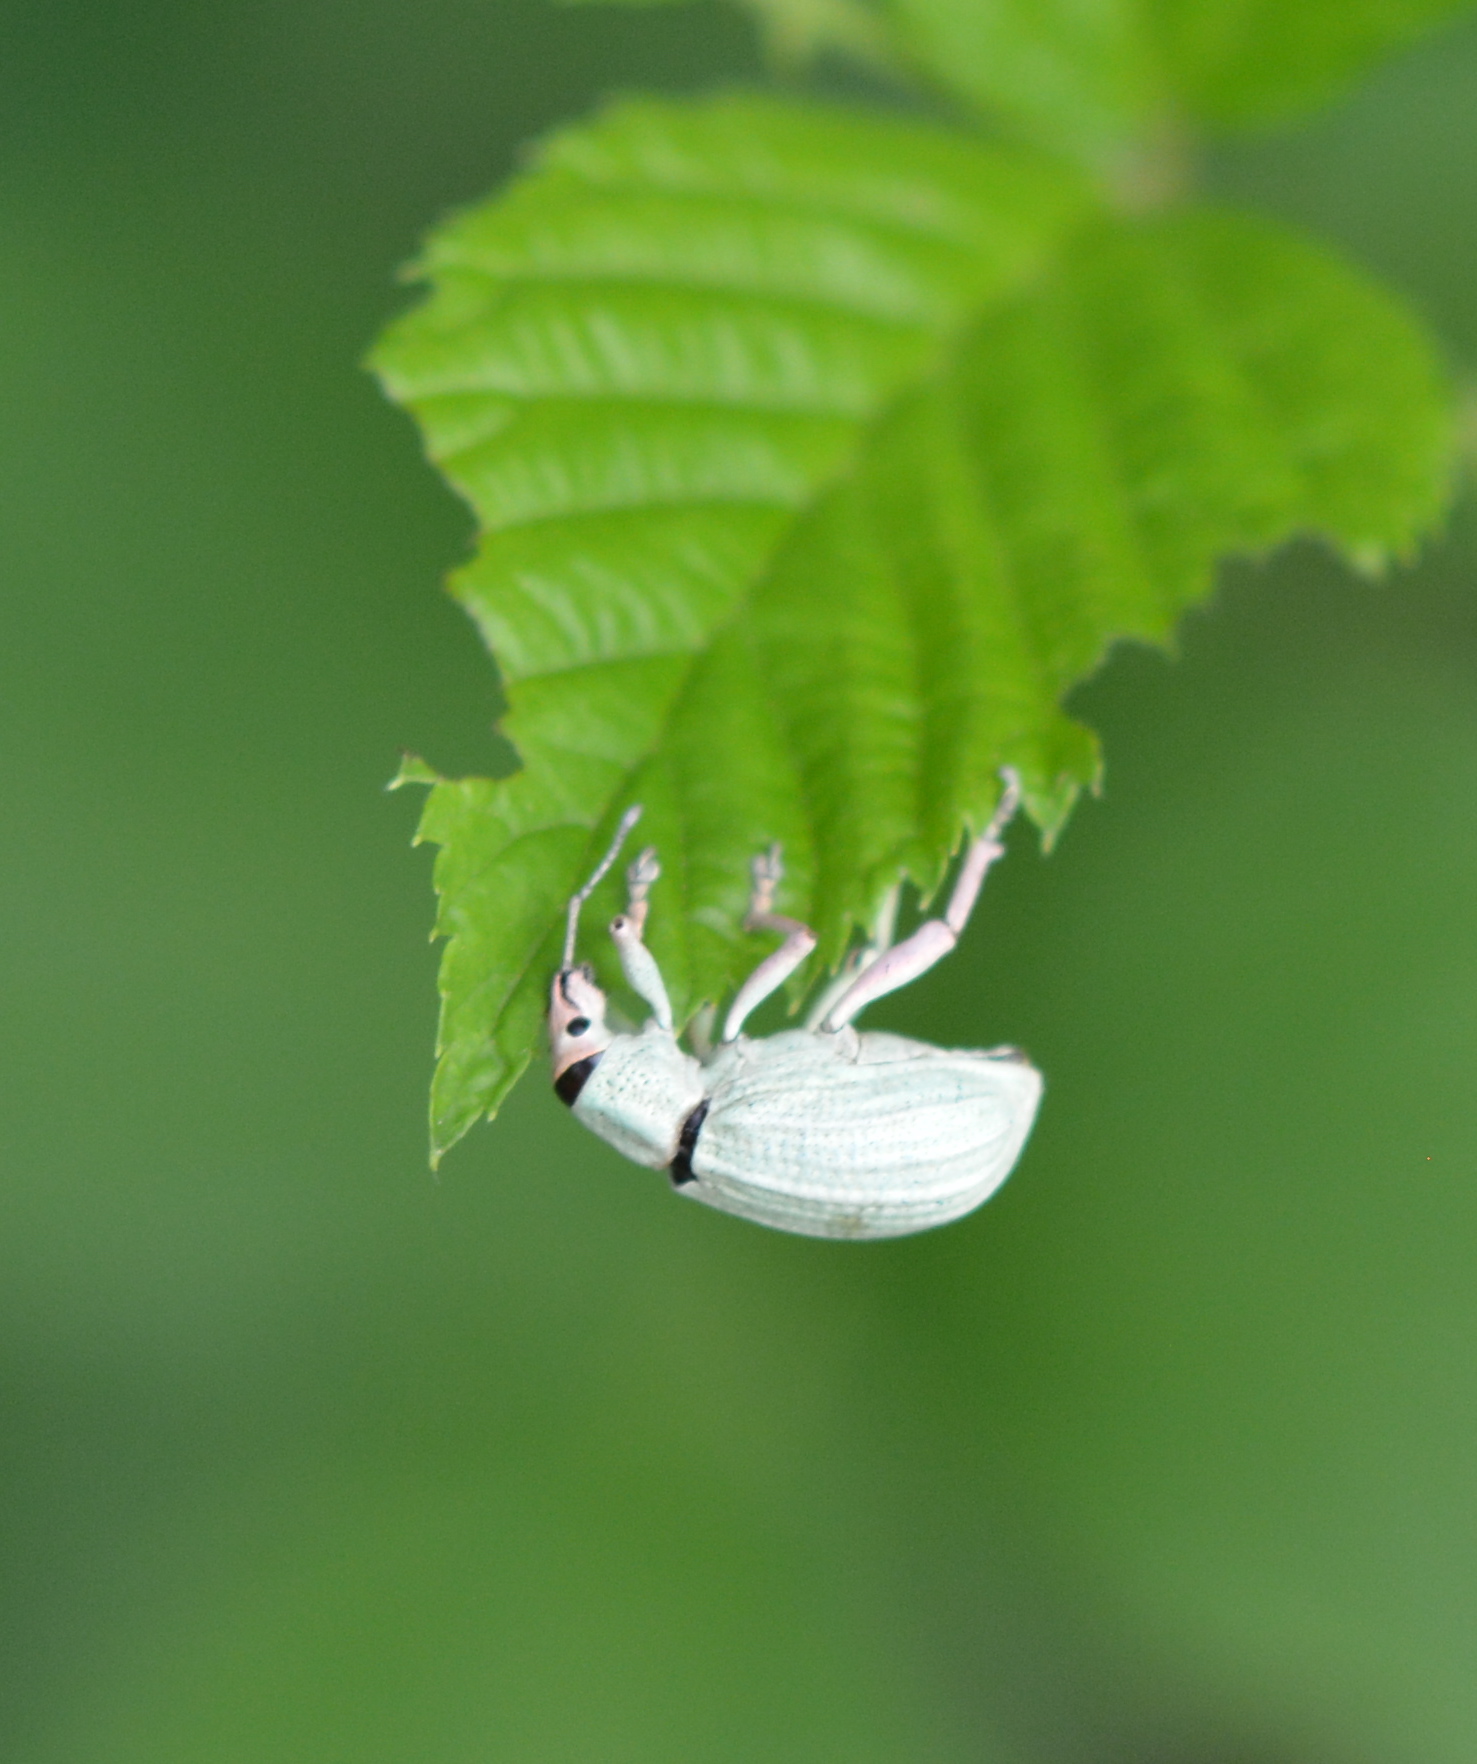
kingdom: Animalia
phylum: Arthropoda
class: Insecta
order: Coleoptera
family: Curculionidae
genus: Compsus
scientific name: Compsus auricephalus
